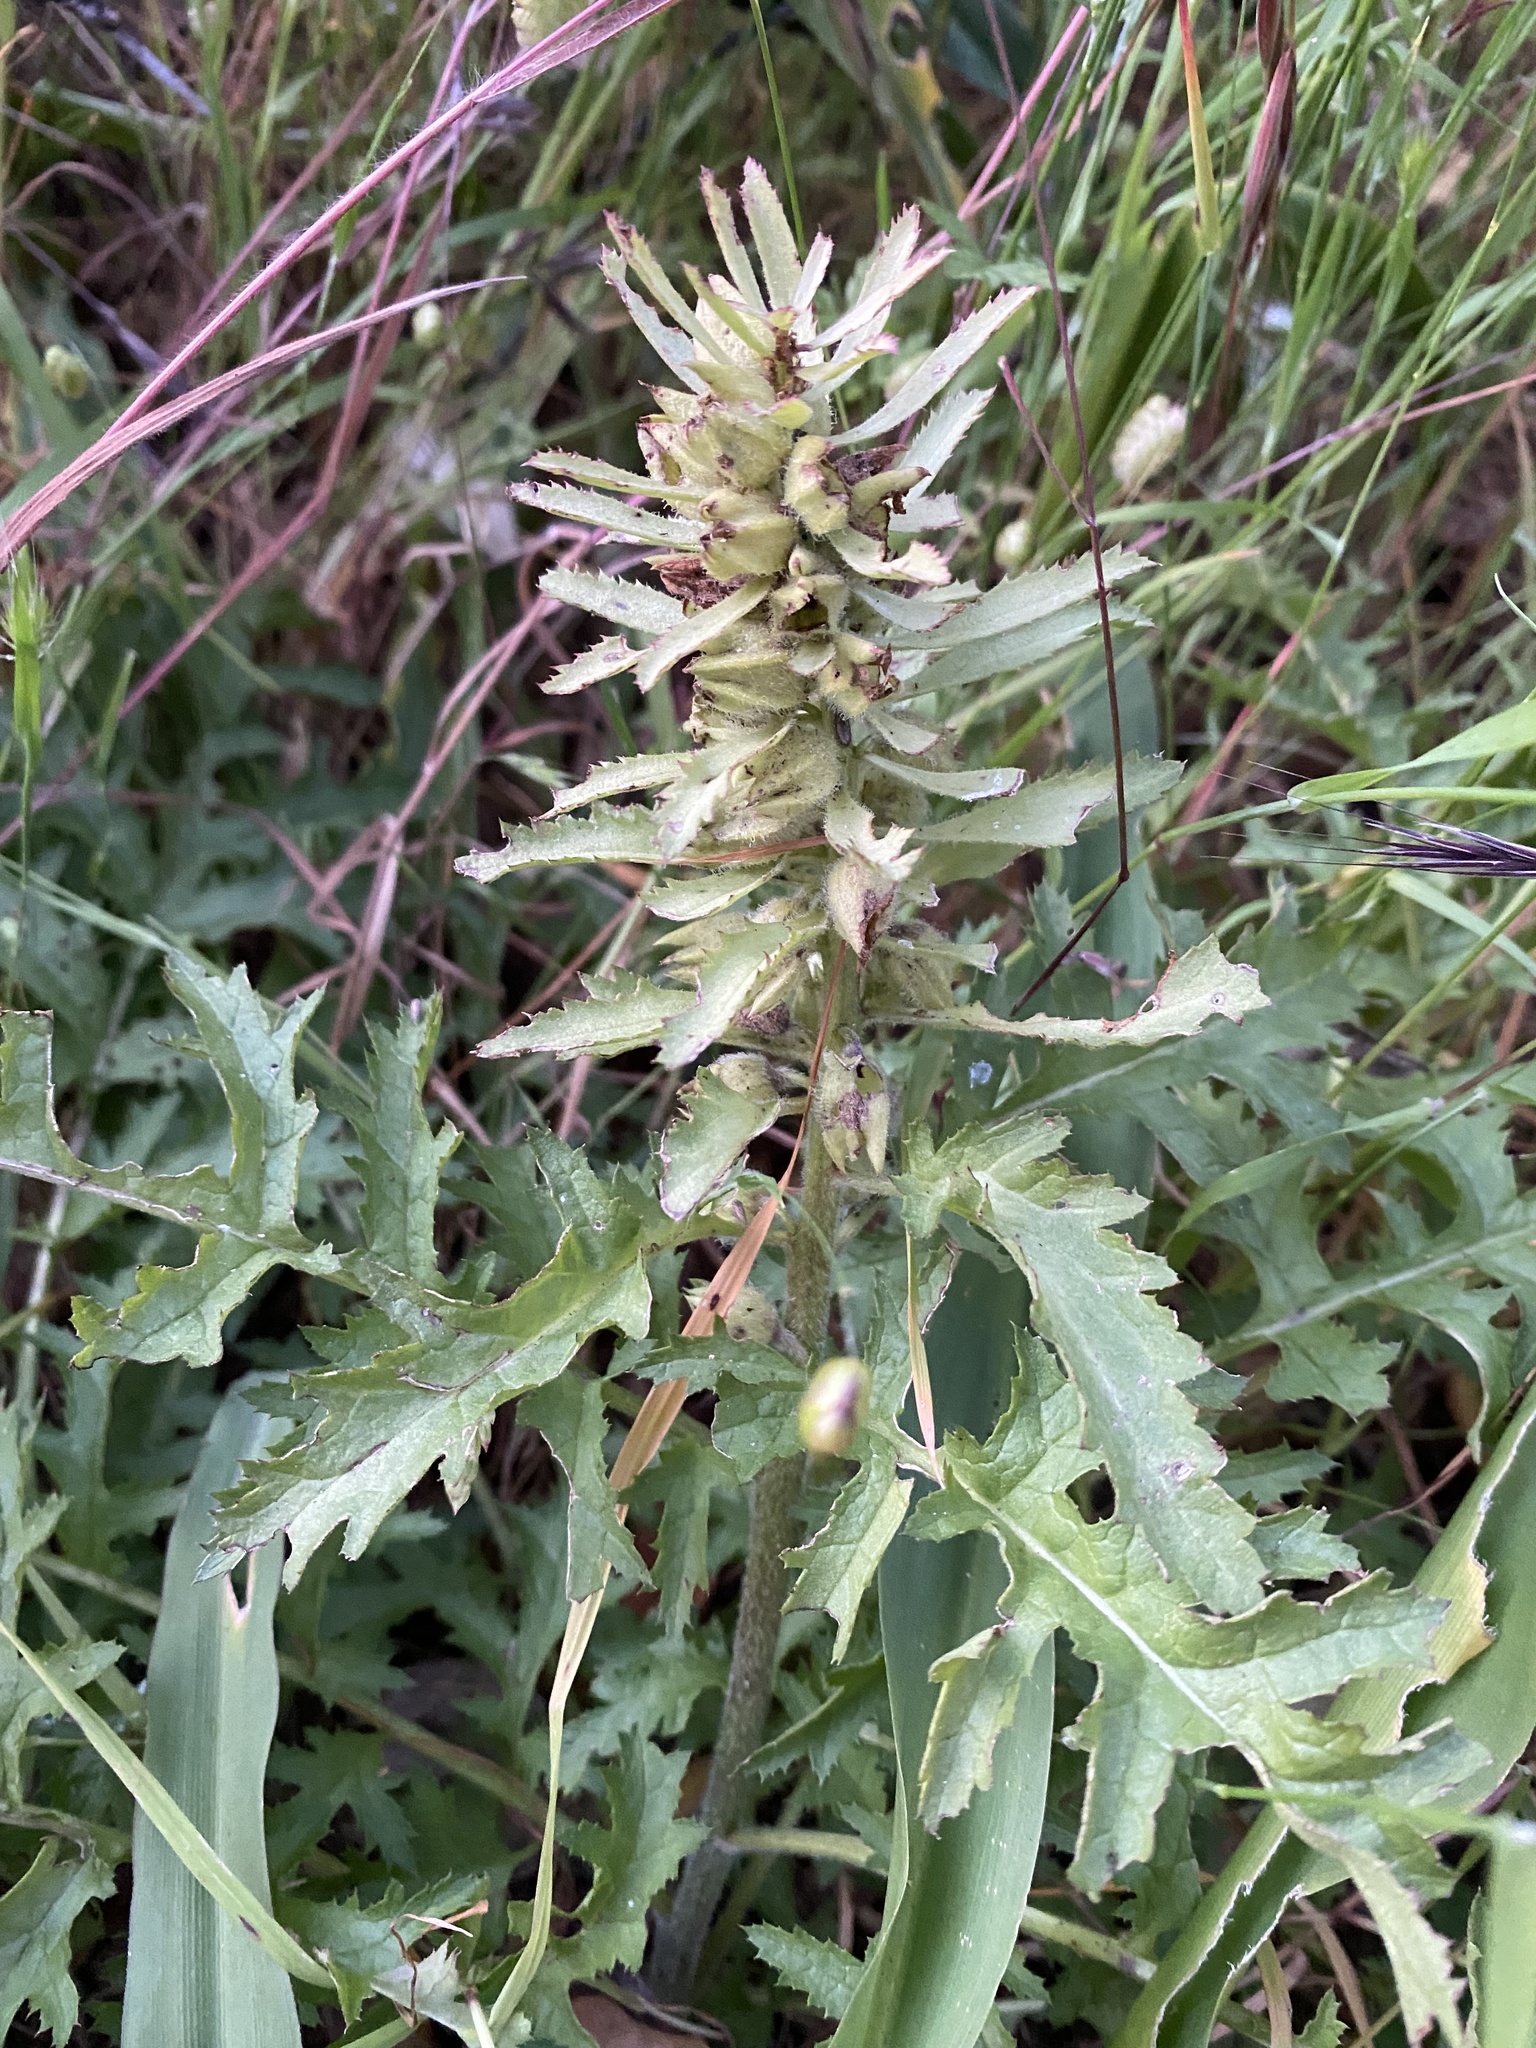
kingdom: Plantae
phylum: Tracheophyta
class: Magnoliopsida
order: Lamiales
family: Orobanchaceae
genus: Pedicularis
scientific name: Pedicularis densiflora
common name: Indian warrior
